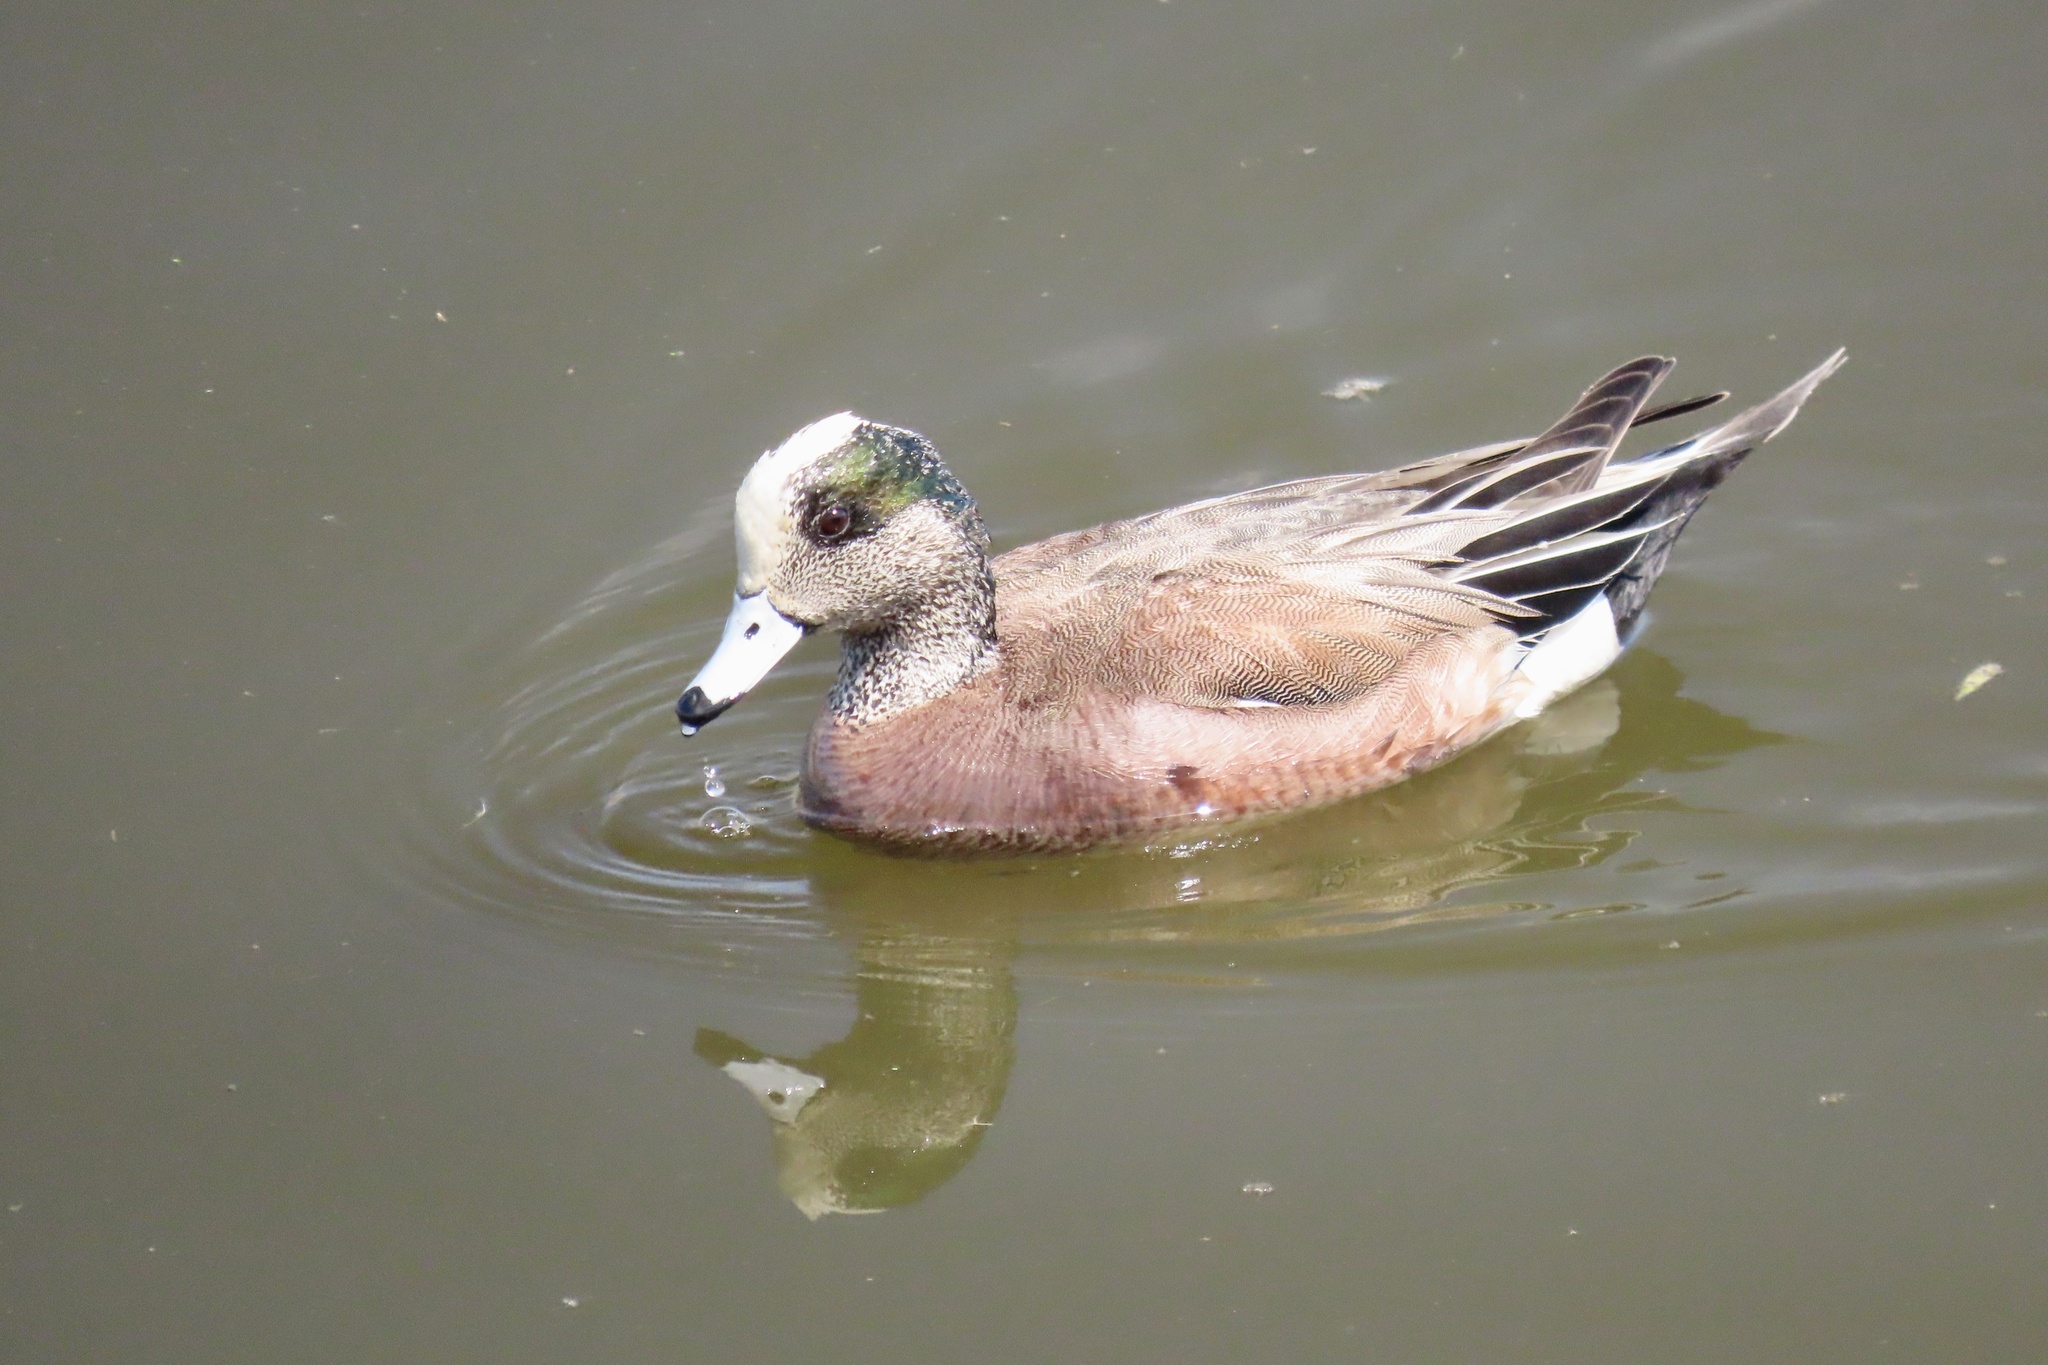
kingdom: Animalia
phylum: Chordata
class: Aves
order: Anseriformes
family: Anatidae
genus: Mareca
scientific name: Mareca americana
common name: American wigeon
